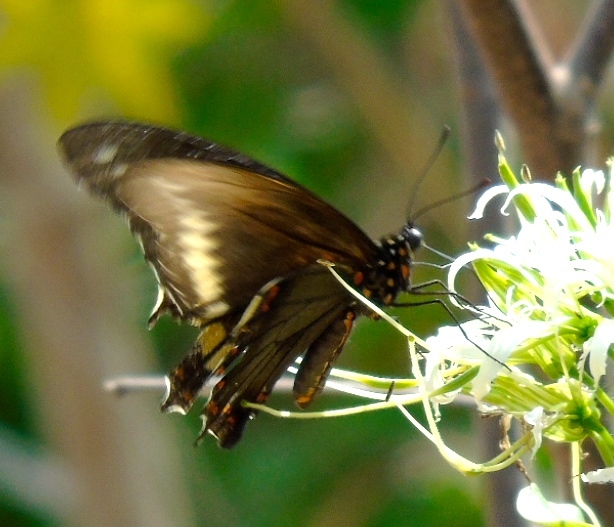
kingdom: Animalia
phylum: Arthropoda
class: Insecta
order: Lepidoptera
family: Papilionidae
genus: Battus
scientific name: Battus polydamas
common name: Polydamas swallowtail
